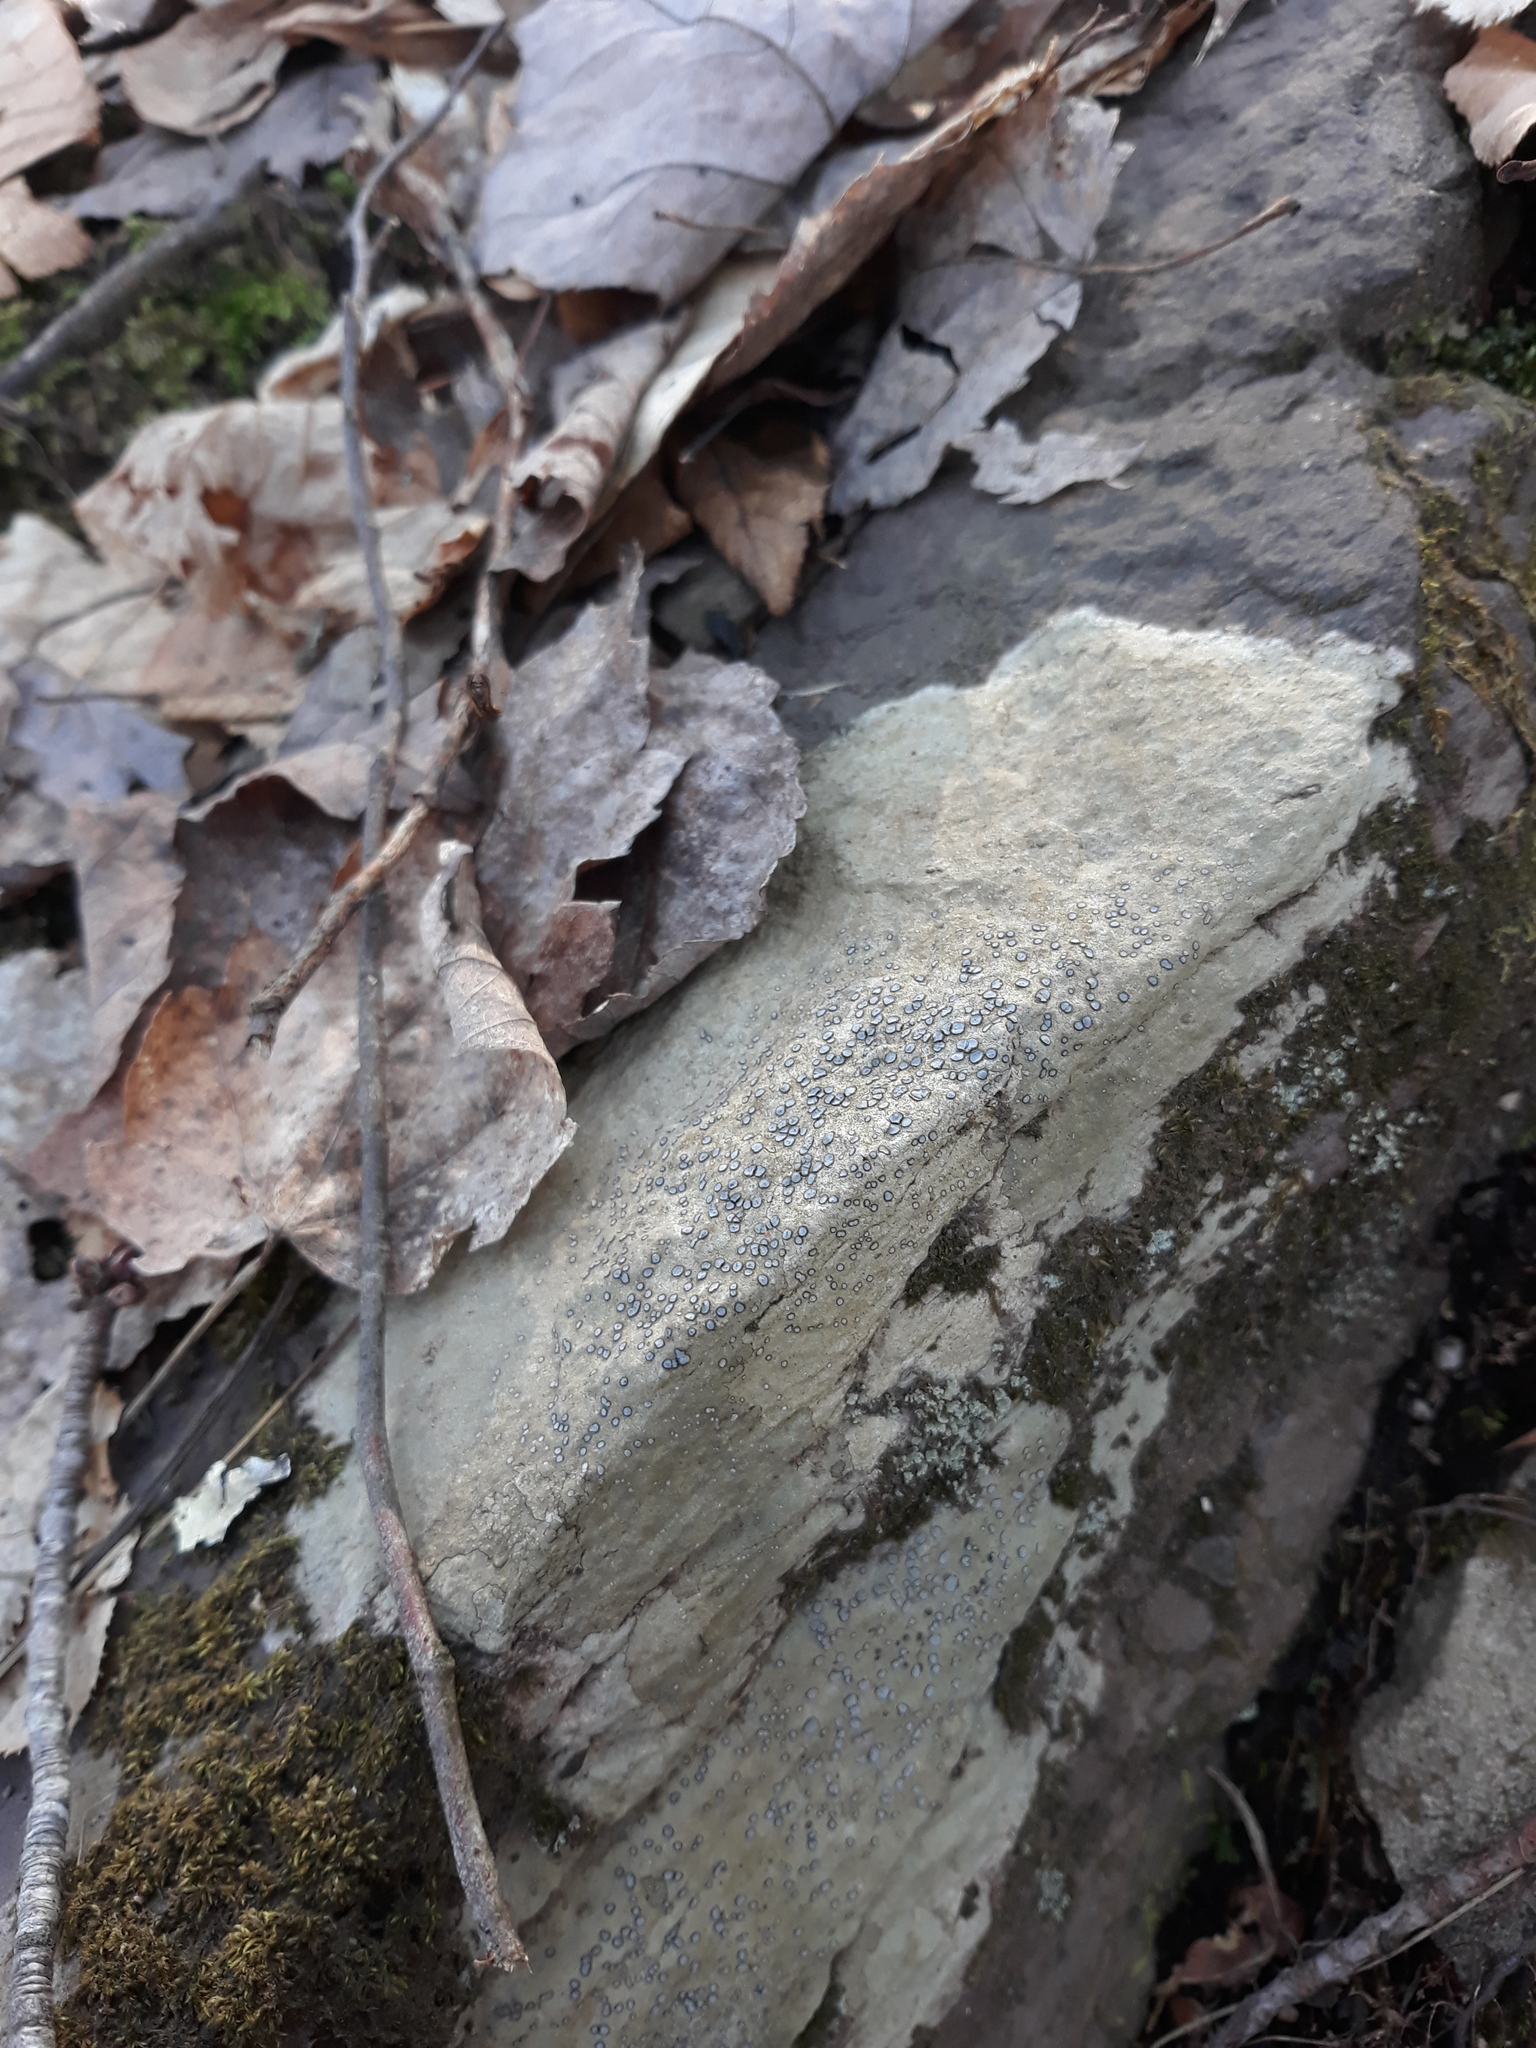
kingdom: Fungi
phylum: Ascomycota
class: Lecanoromycetes
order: Lecideales
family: Lecideaceae
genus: Porpidia
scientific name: Porpidia albocaerulescens
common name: Smokey-eyed boulder lichen
